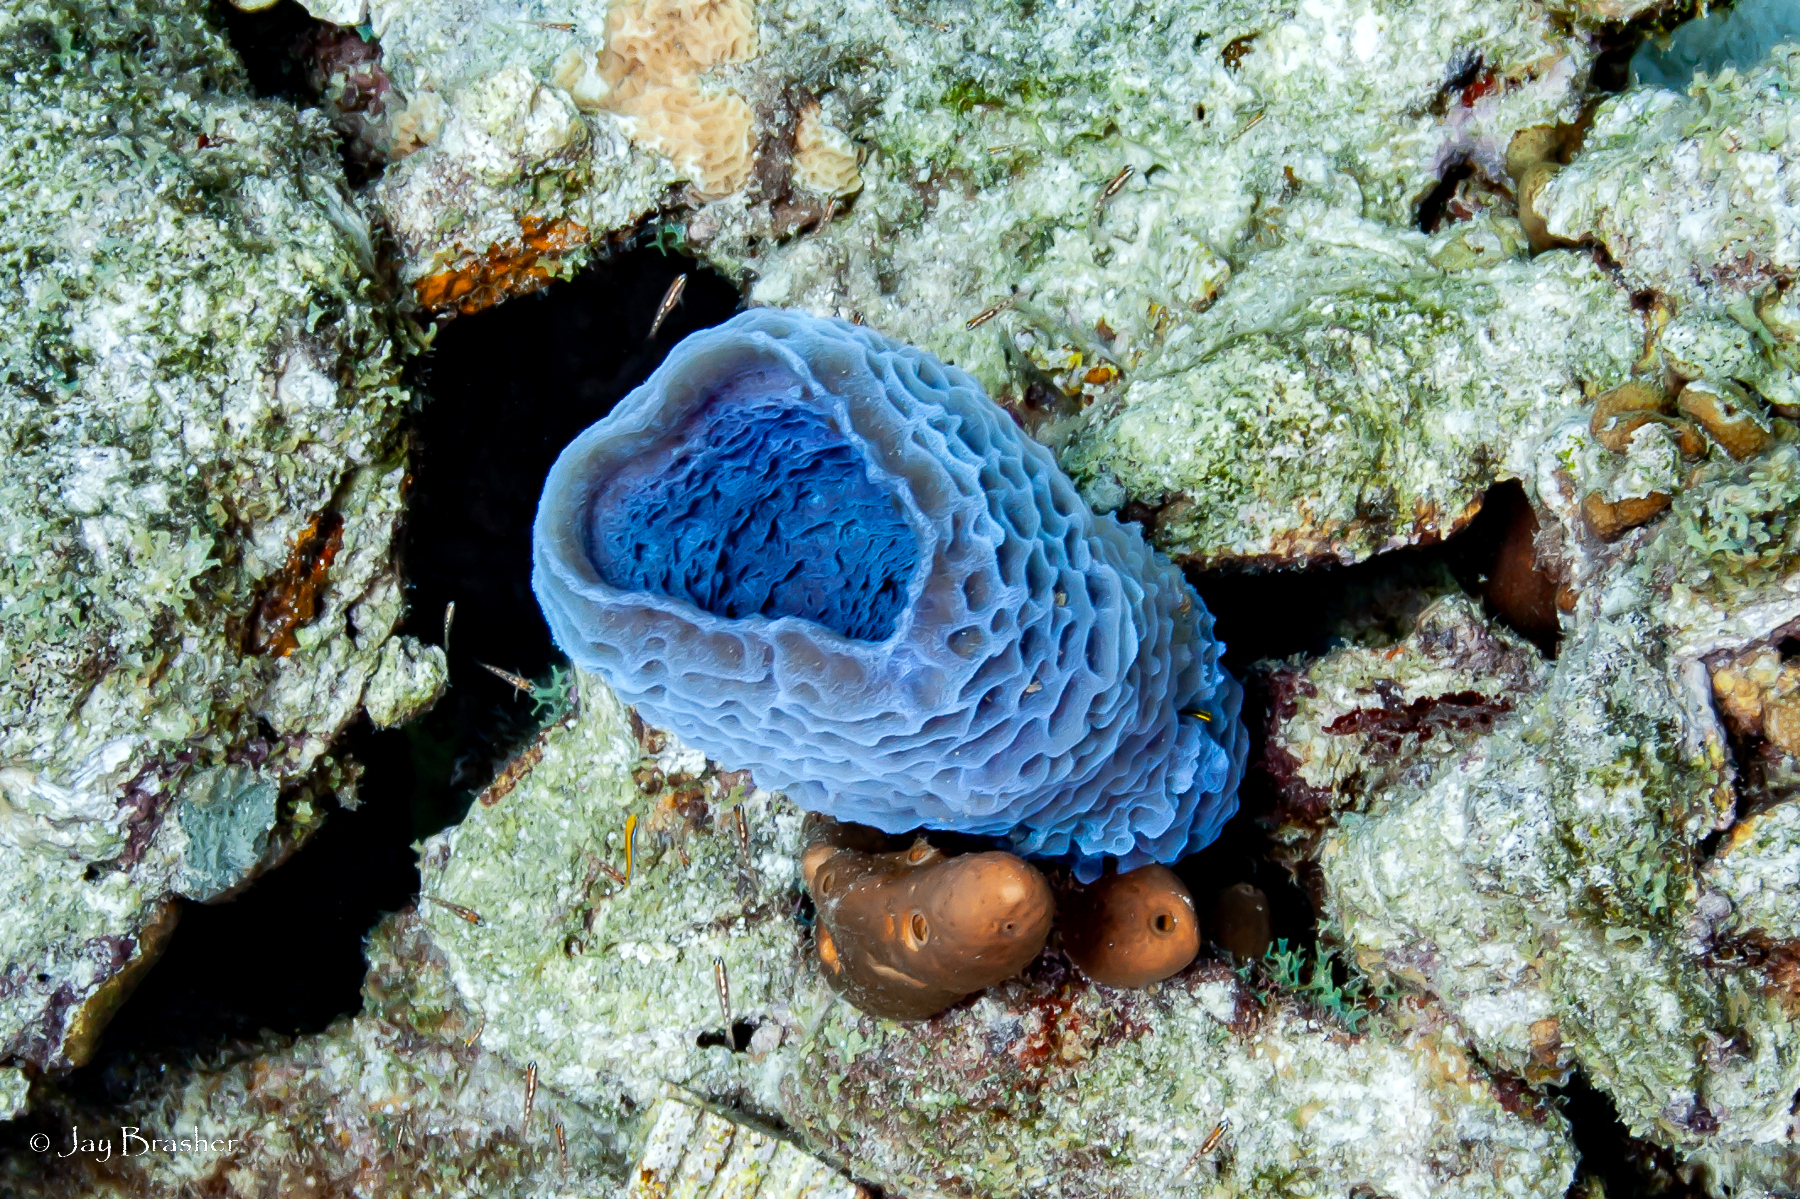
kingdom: Animalia
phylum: Porifera
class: Demospongiae
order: Haplosclerida
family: Callyspongiidae
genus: Callyspongia
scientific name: Callyspongia plicifera
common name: Azure vase sponge
